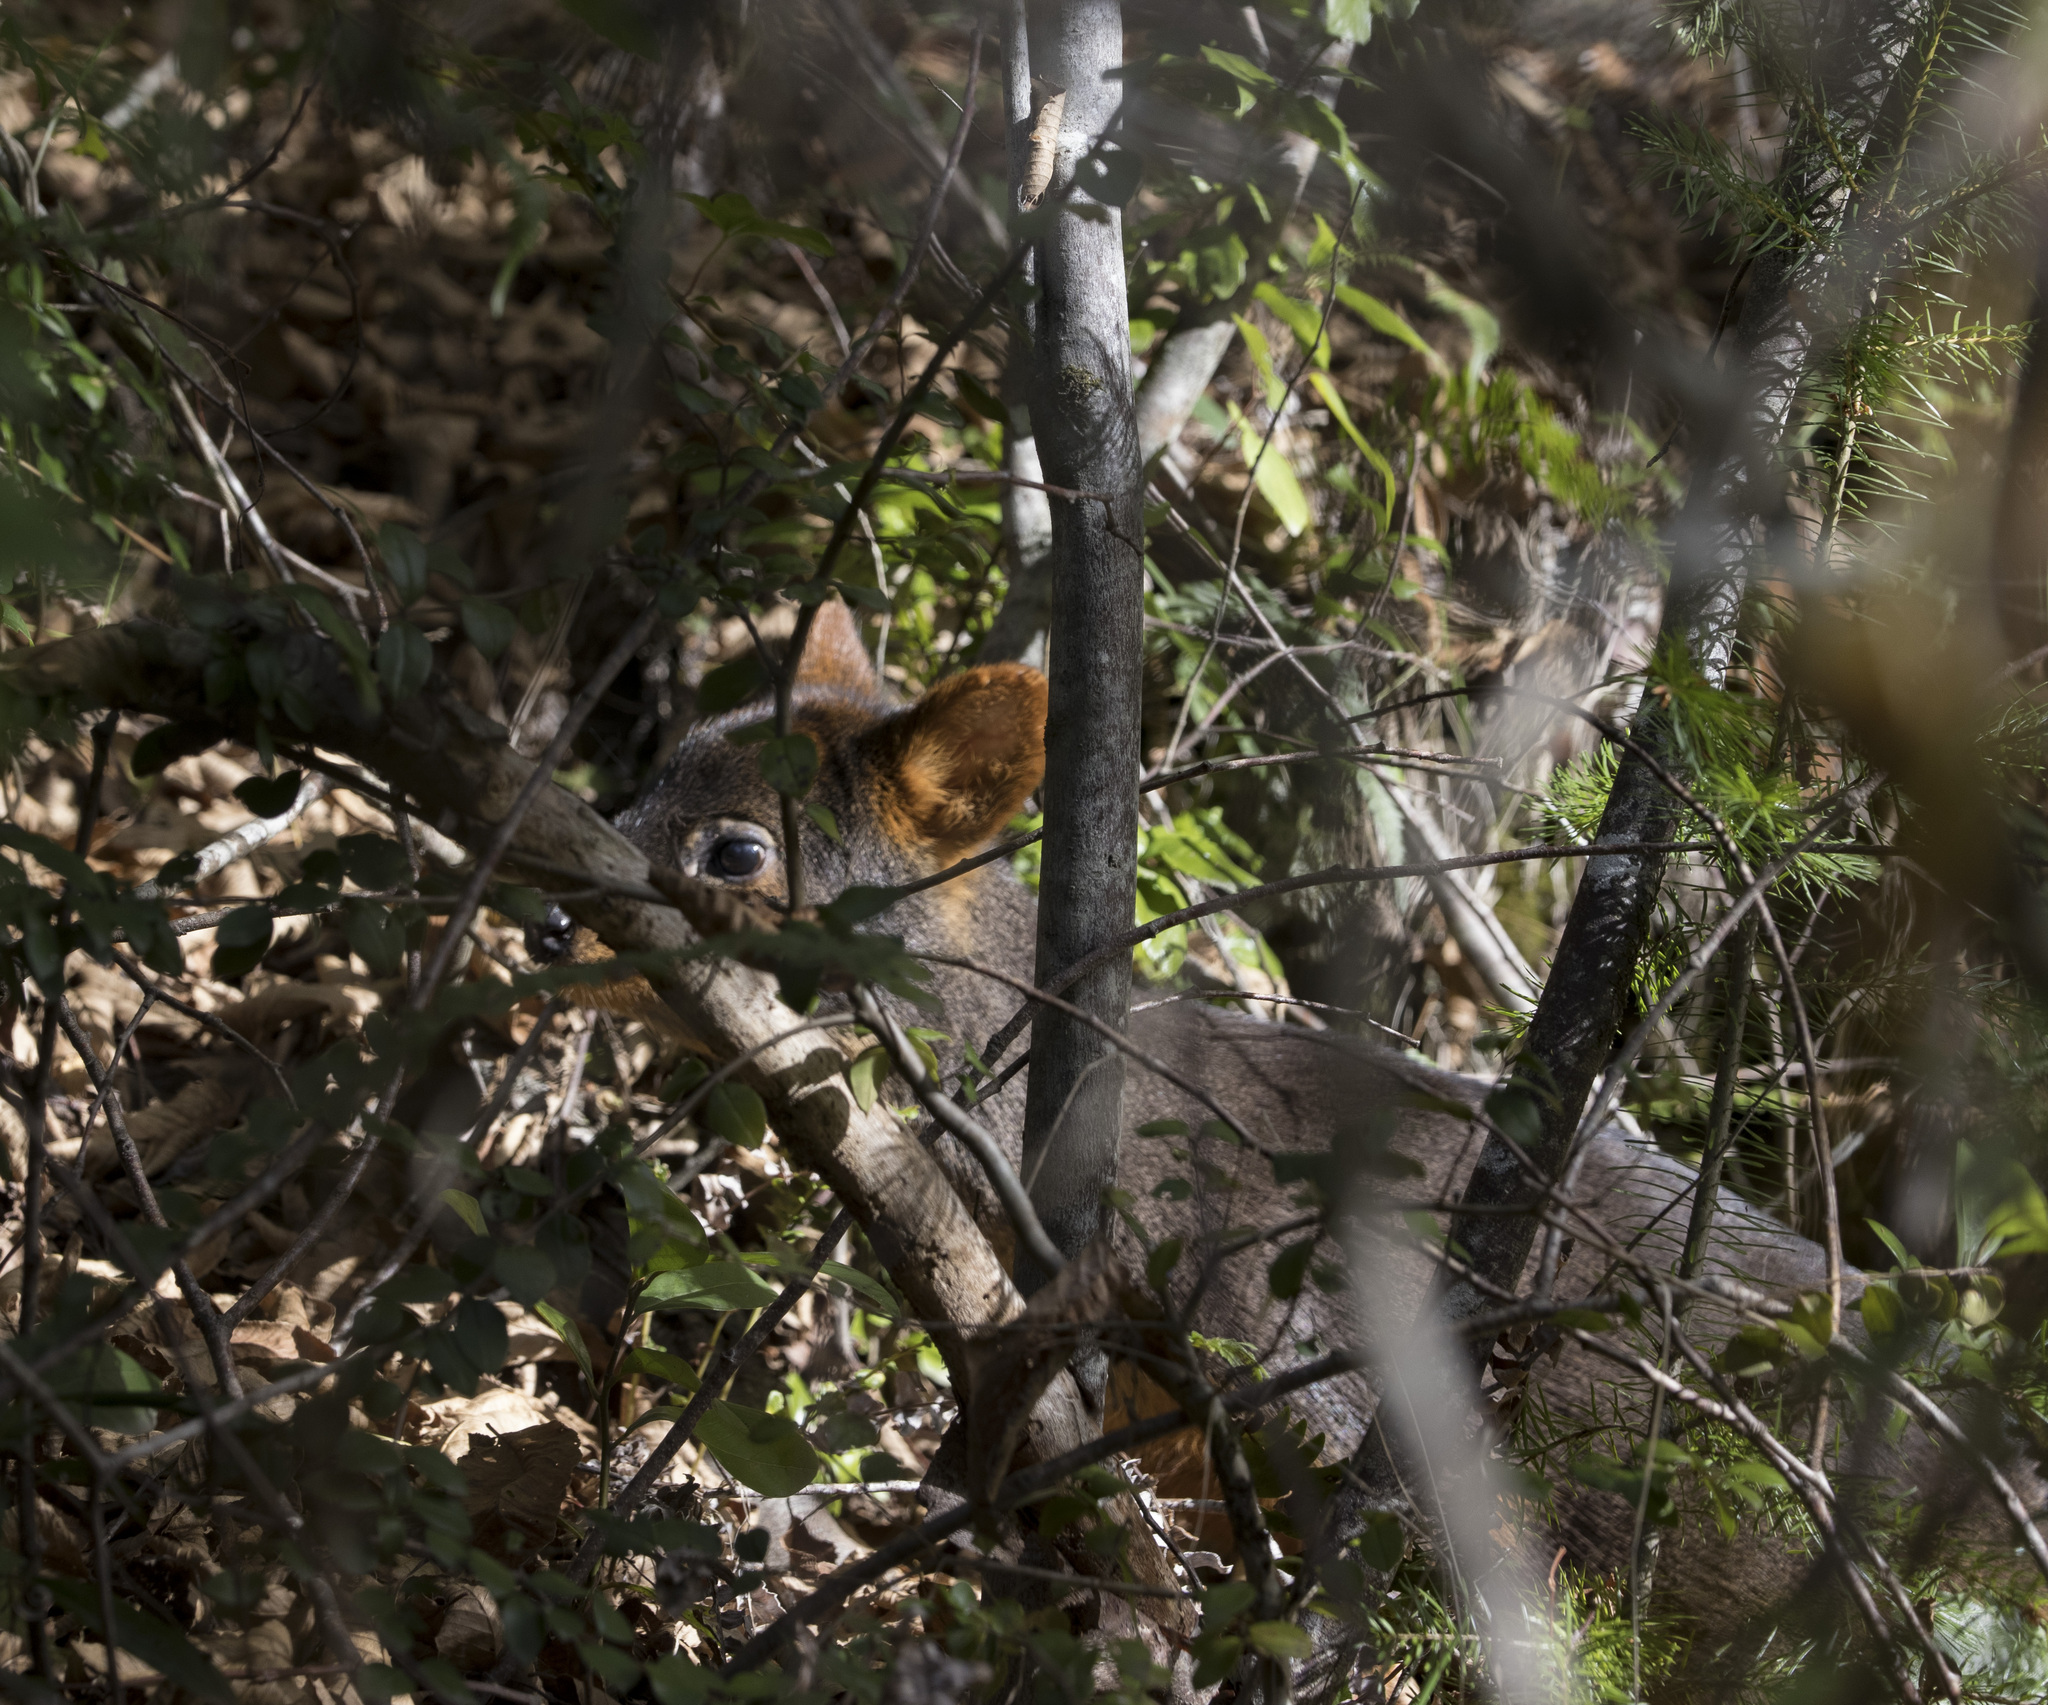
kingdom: Animalia
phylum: Chordata
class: Mammalia
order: Artiodactyla
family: Cervidae
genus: Pudu
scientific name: Pudu puda
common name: Southern pudu
